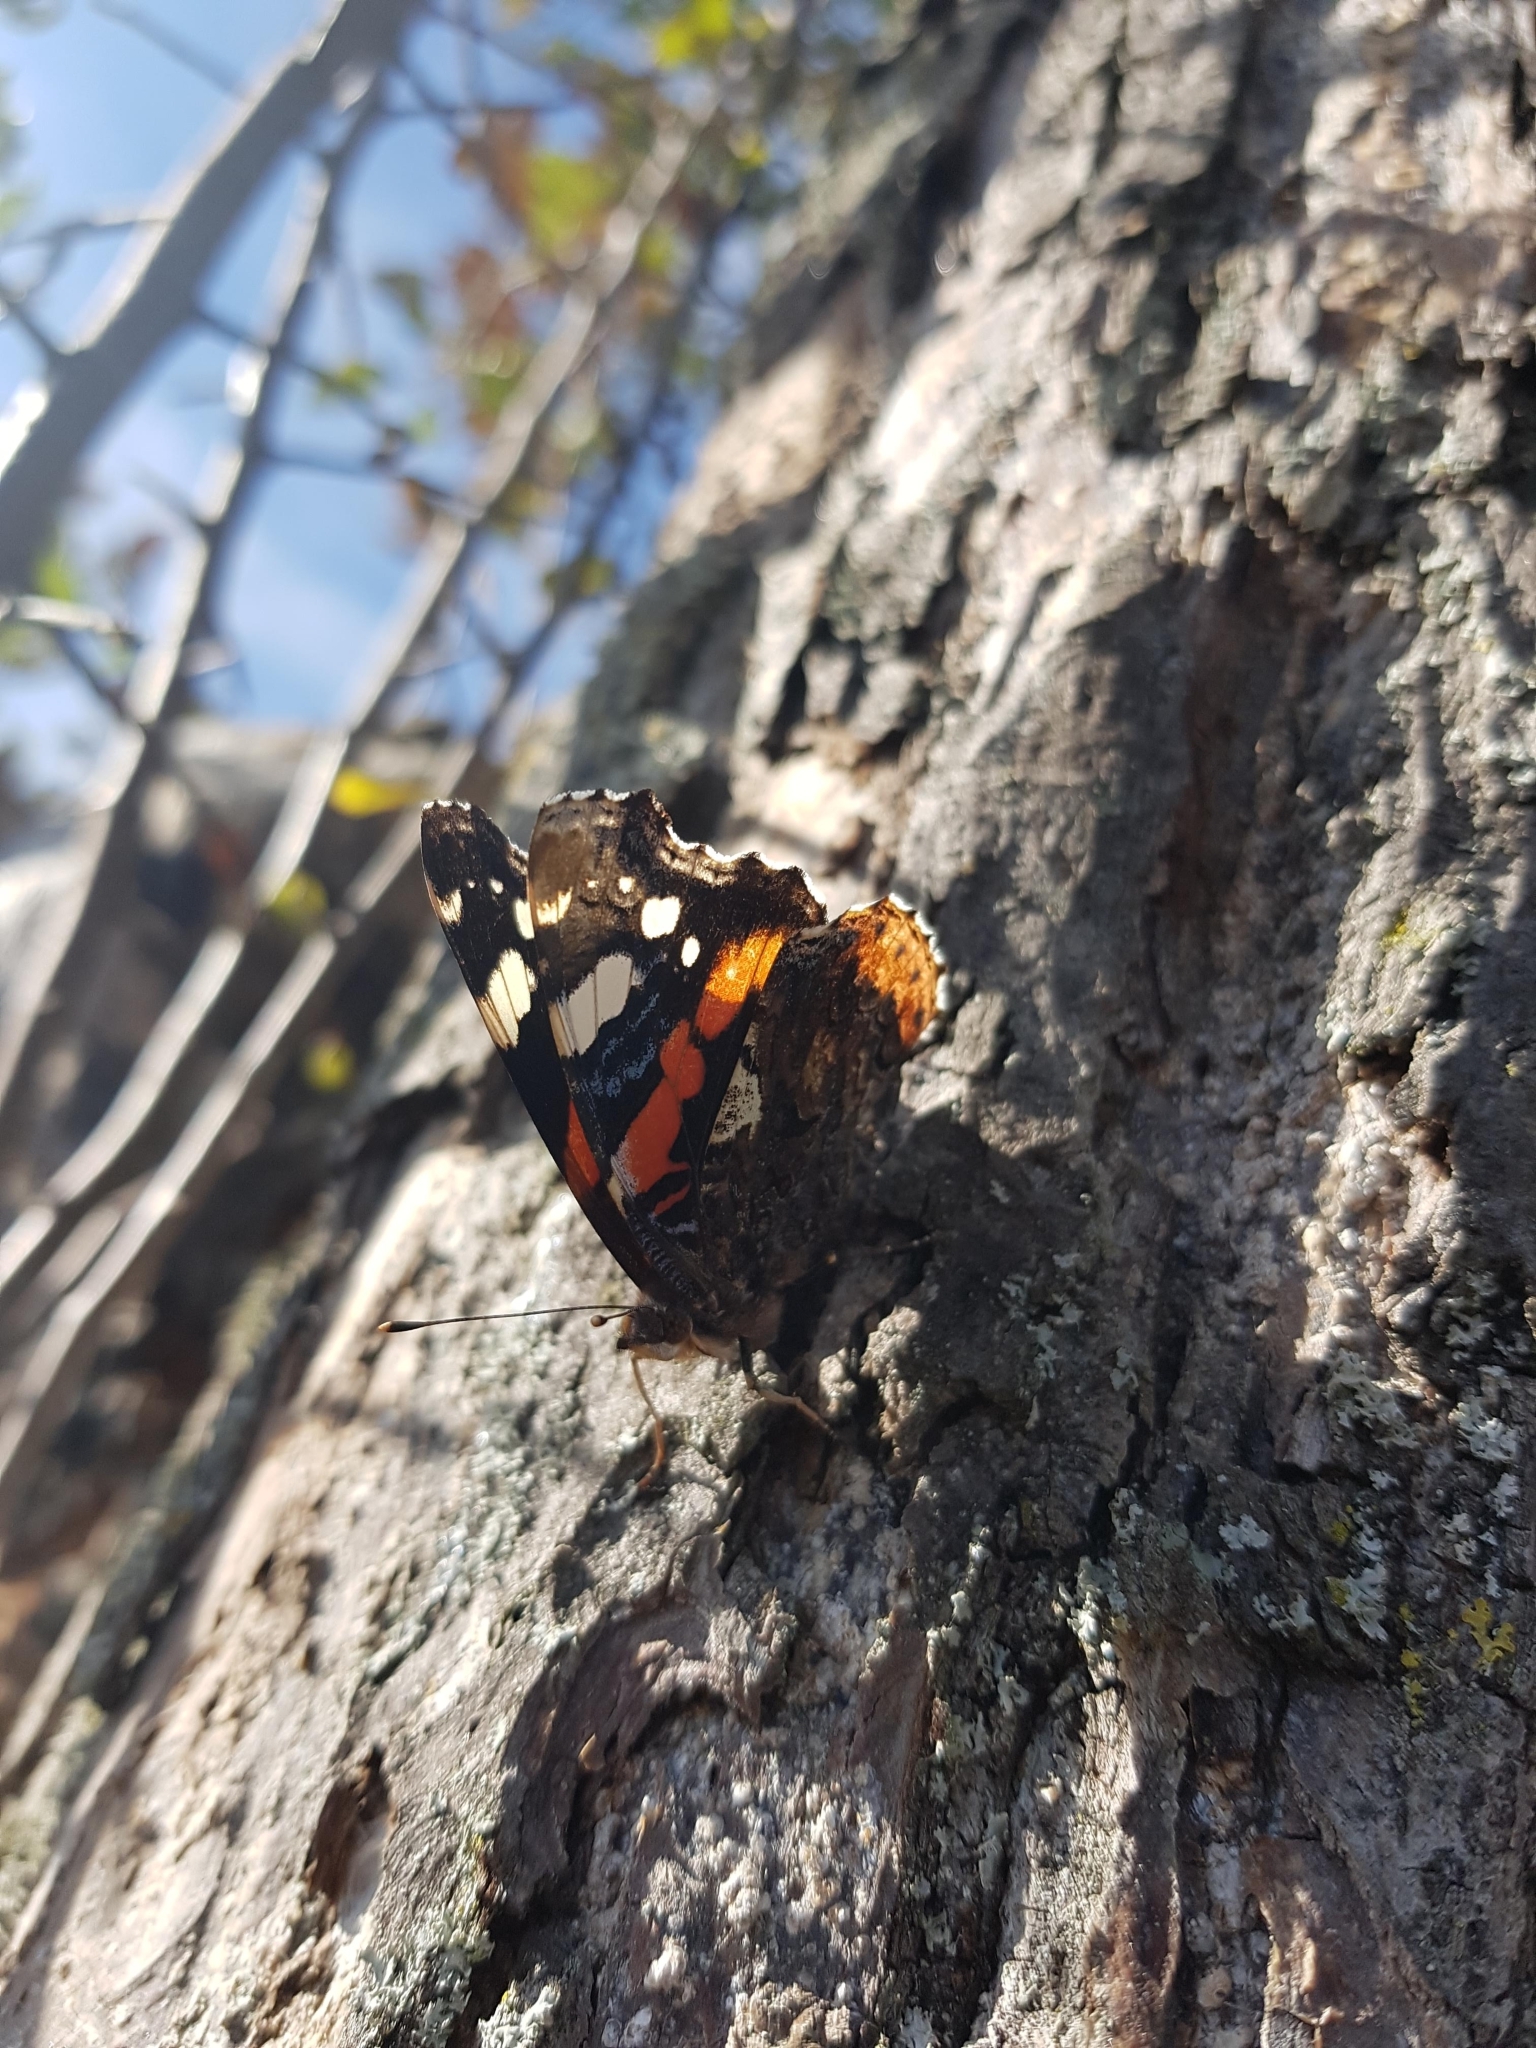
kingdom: Animalia
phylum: Arthropoda
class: Insecta
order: Lepidoptera
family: Nymphalidae
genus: Vanessa
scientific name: Vanessa atalanta
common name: Red admiral
